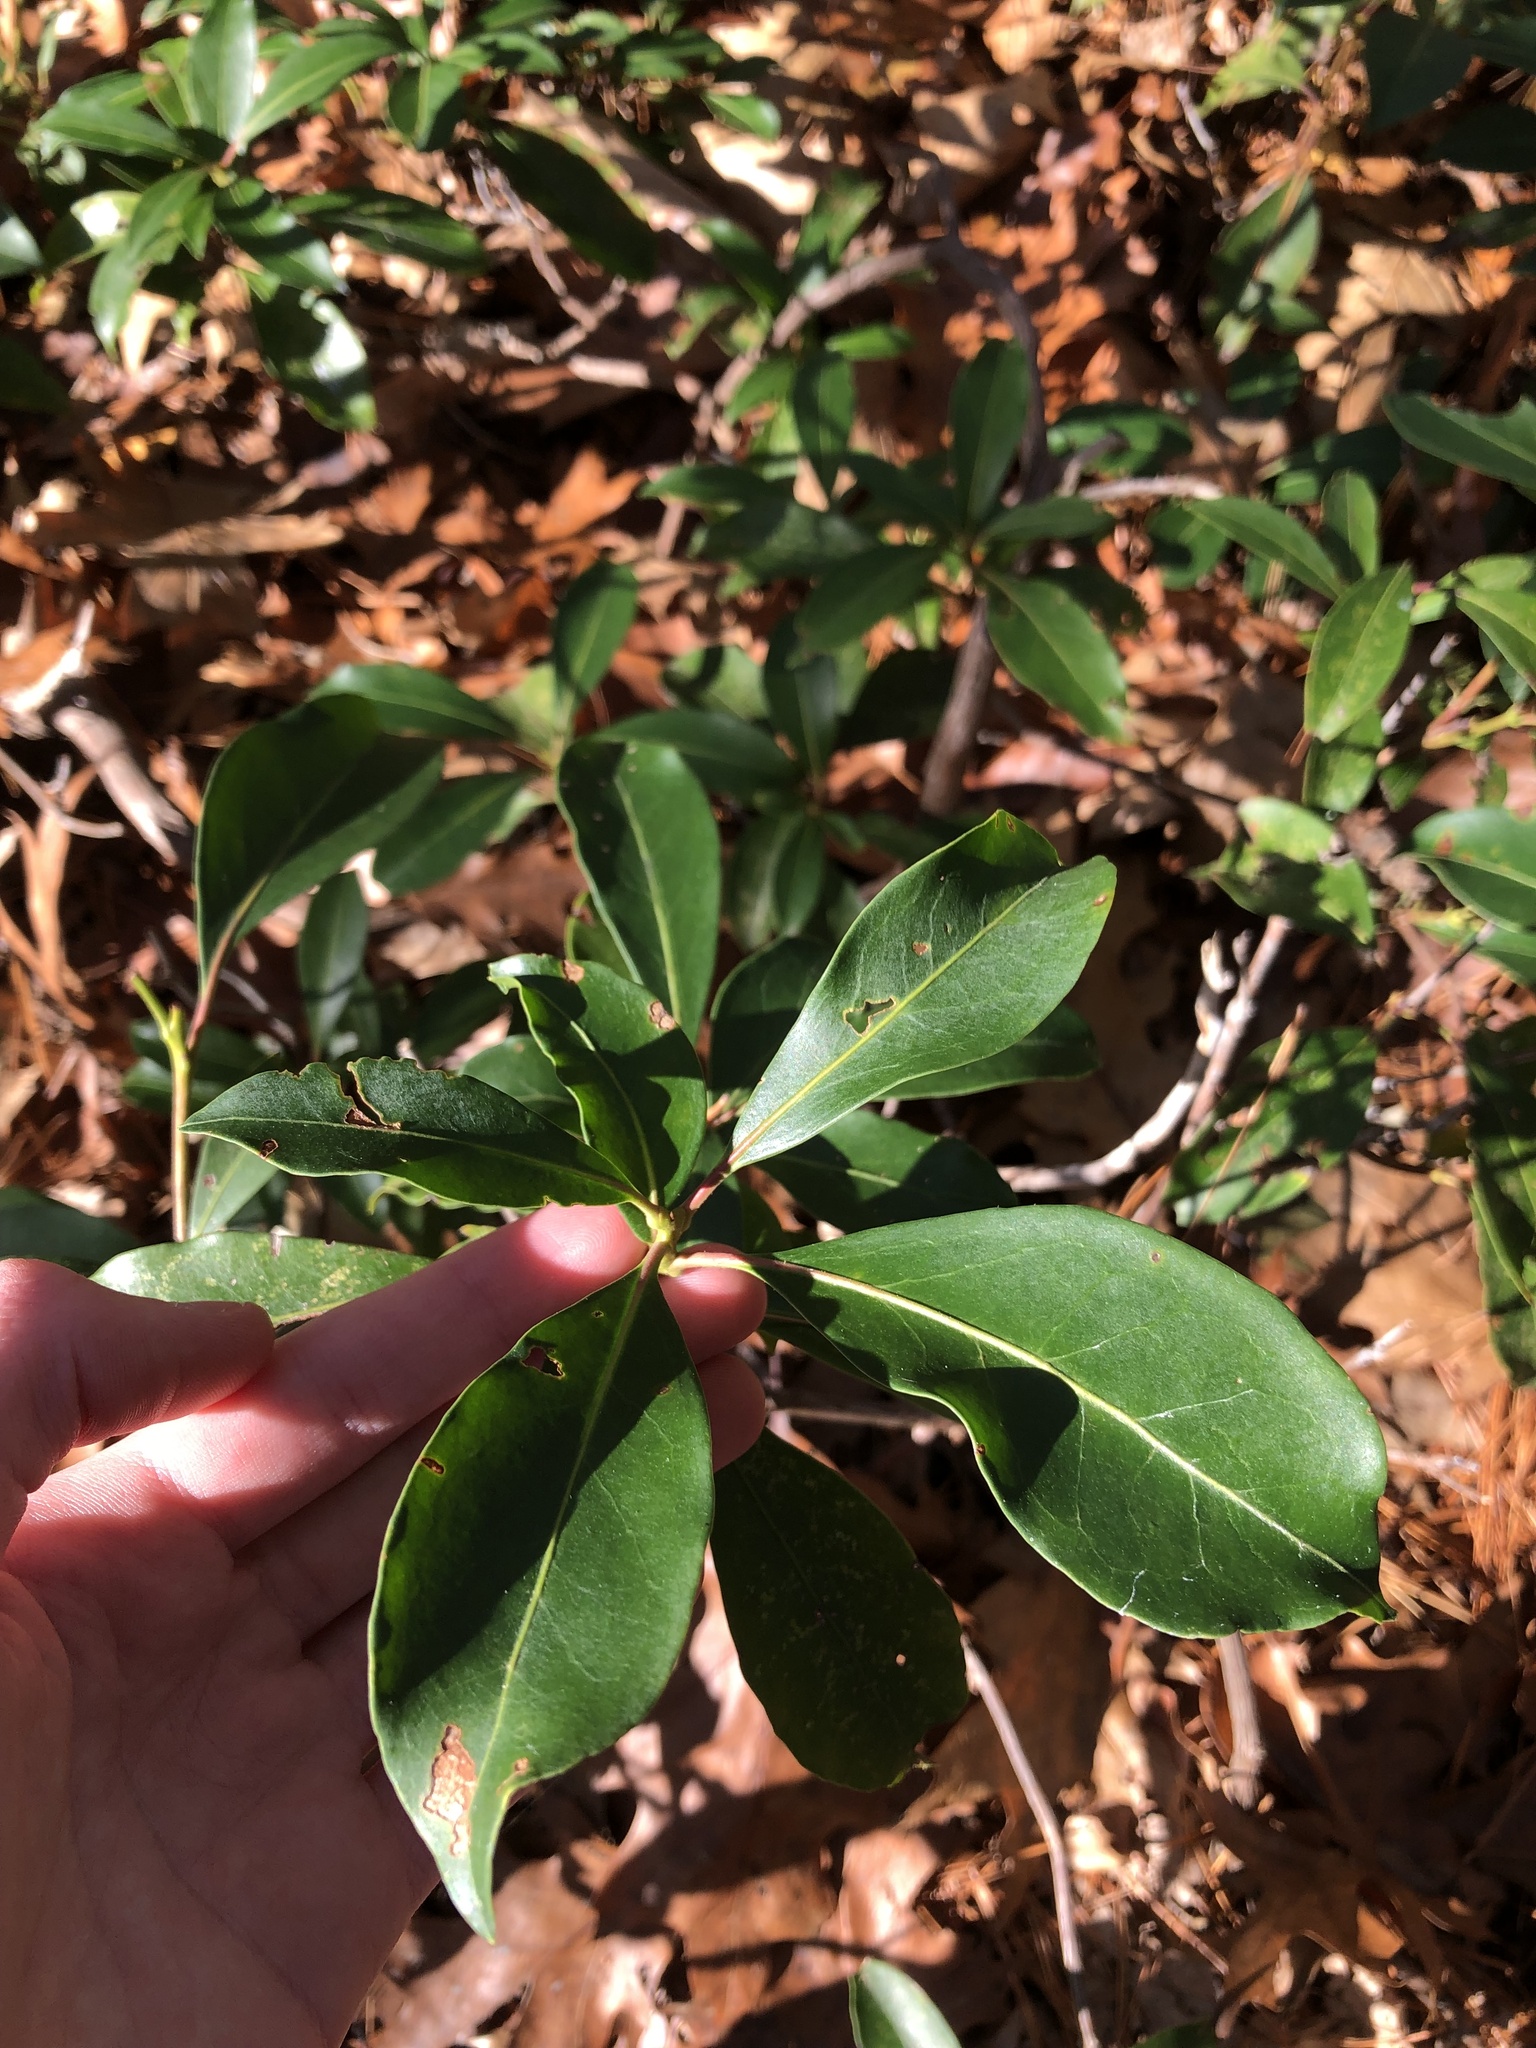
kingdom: Plantae
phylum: Tracheophyta
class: Magnoliopsida
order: Ericales
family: Ericaceae
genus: Kalmia
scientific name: Kalmia latifolia
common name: Mountain-laurel
